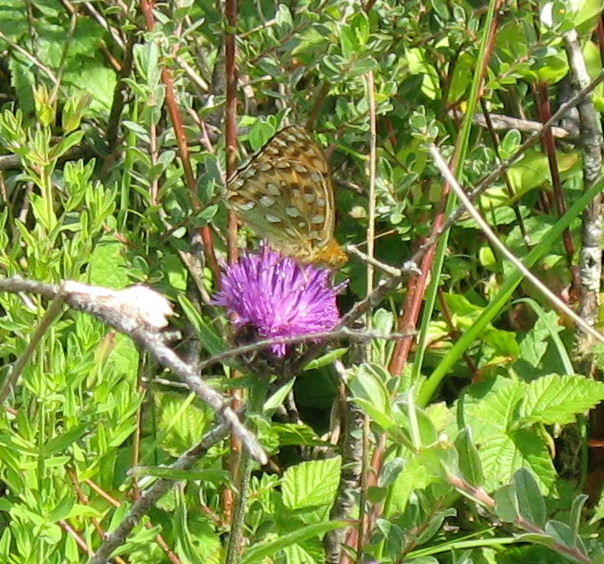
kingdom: Animalia
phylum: Arthropoda
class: Insecta
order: Lepidoptera
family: Nymphalidae
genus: Speyeria
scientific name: Speyeria aglaja
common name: Dark green fritillary
